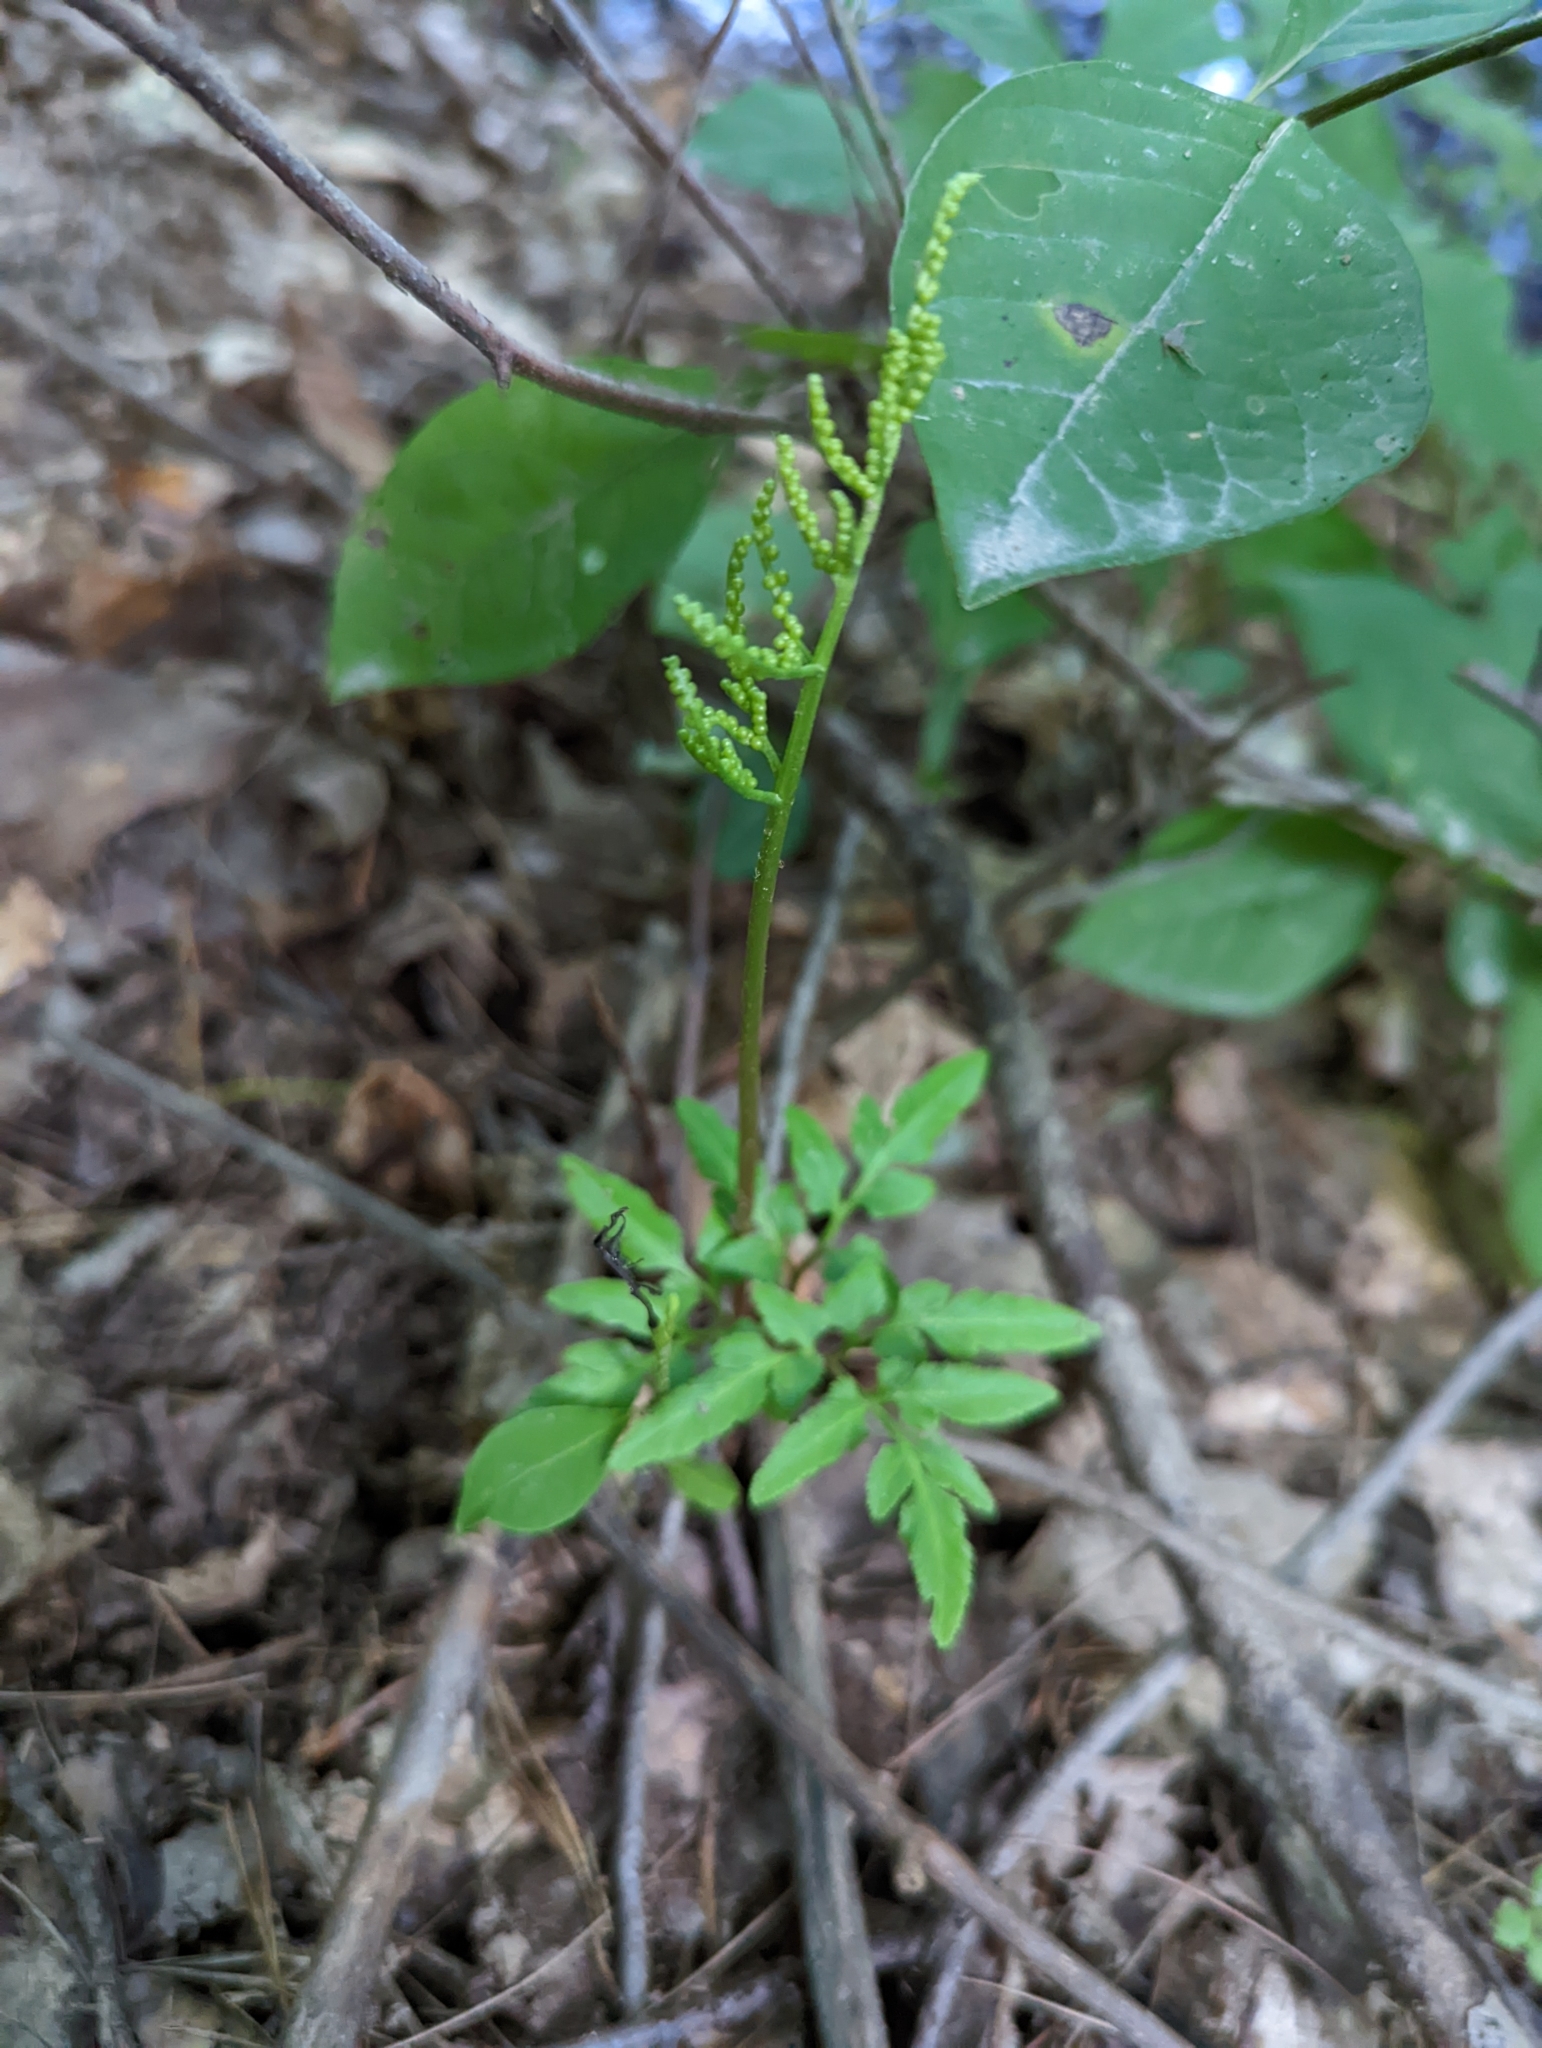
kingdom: Plantae
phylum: Tracheophyta
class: Polypodiopsida
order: Ophioglossales
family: Ophioglossaceae
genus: Sceptridium
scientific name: Sceptridium dissectum
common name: Cut-leaved grapefern
